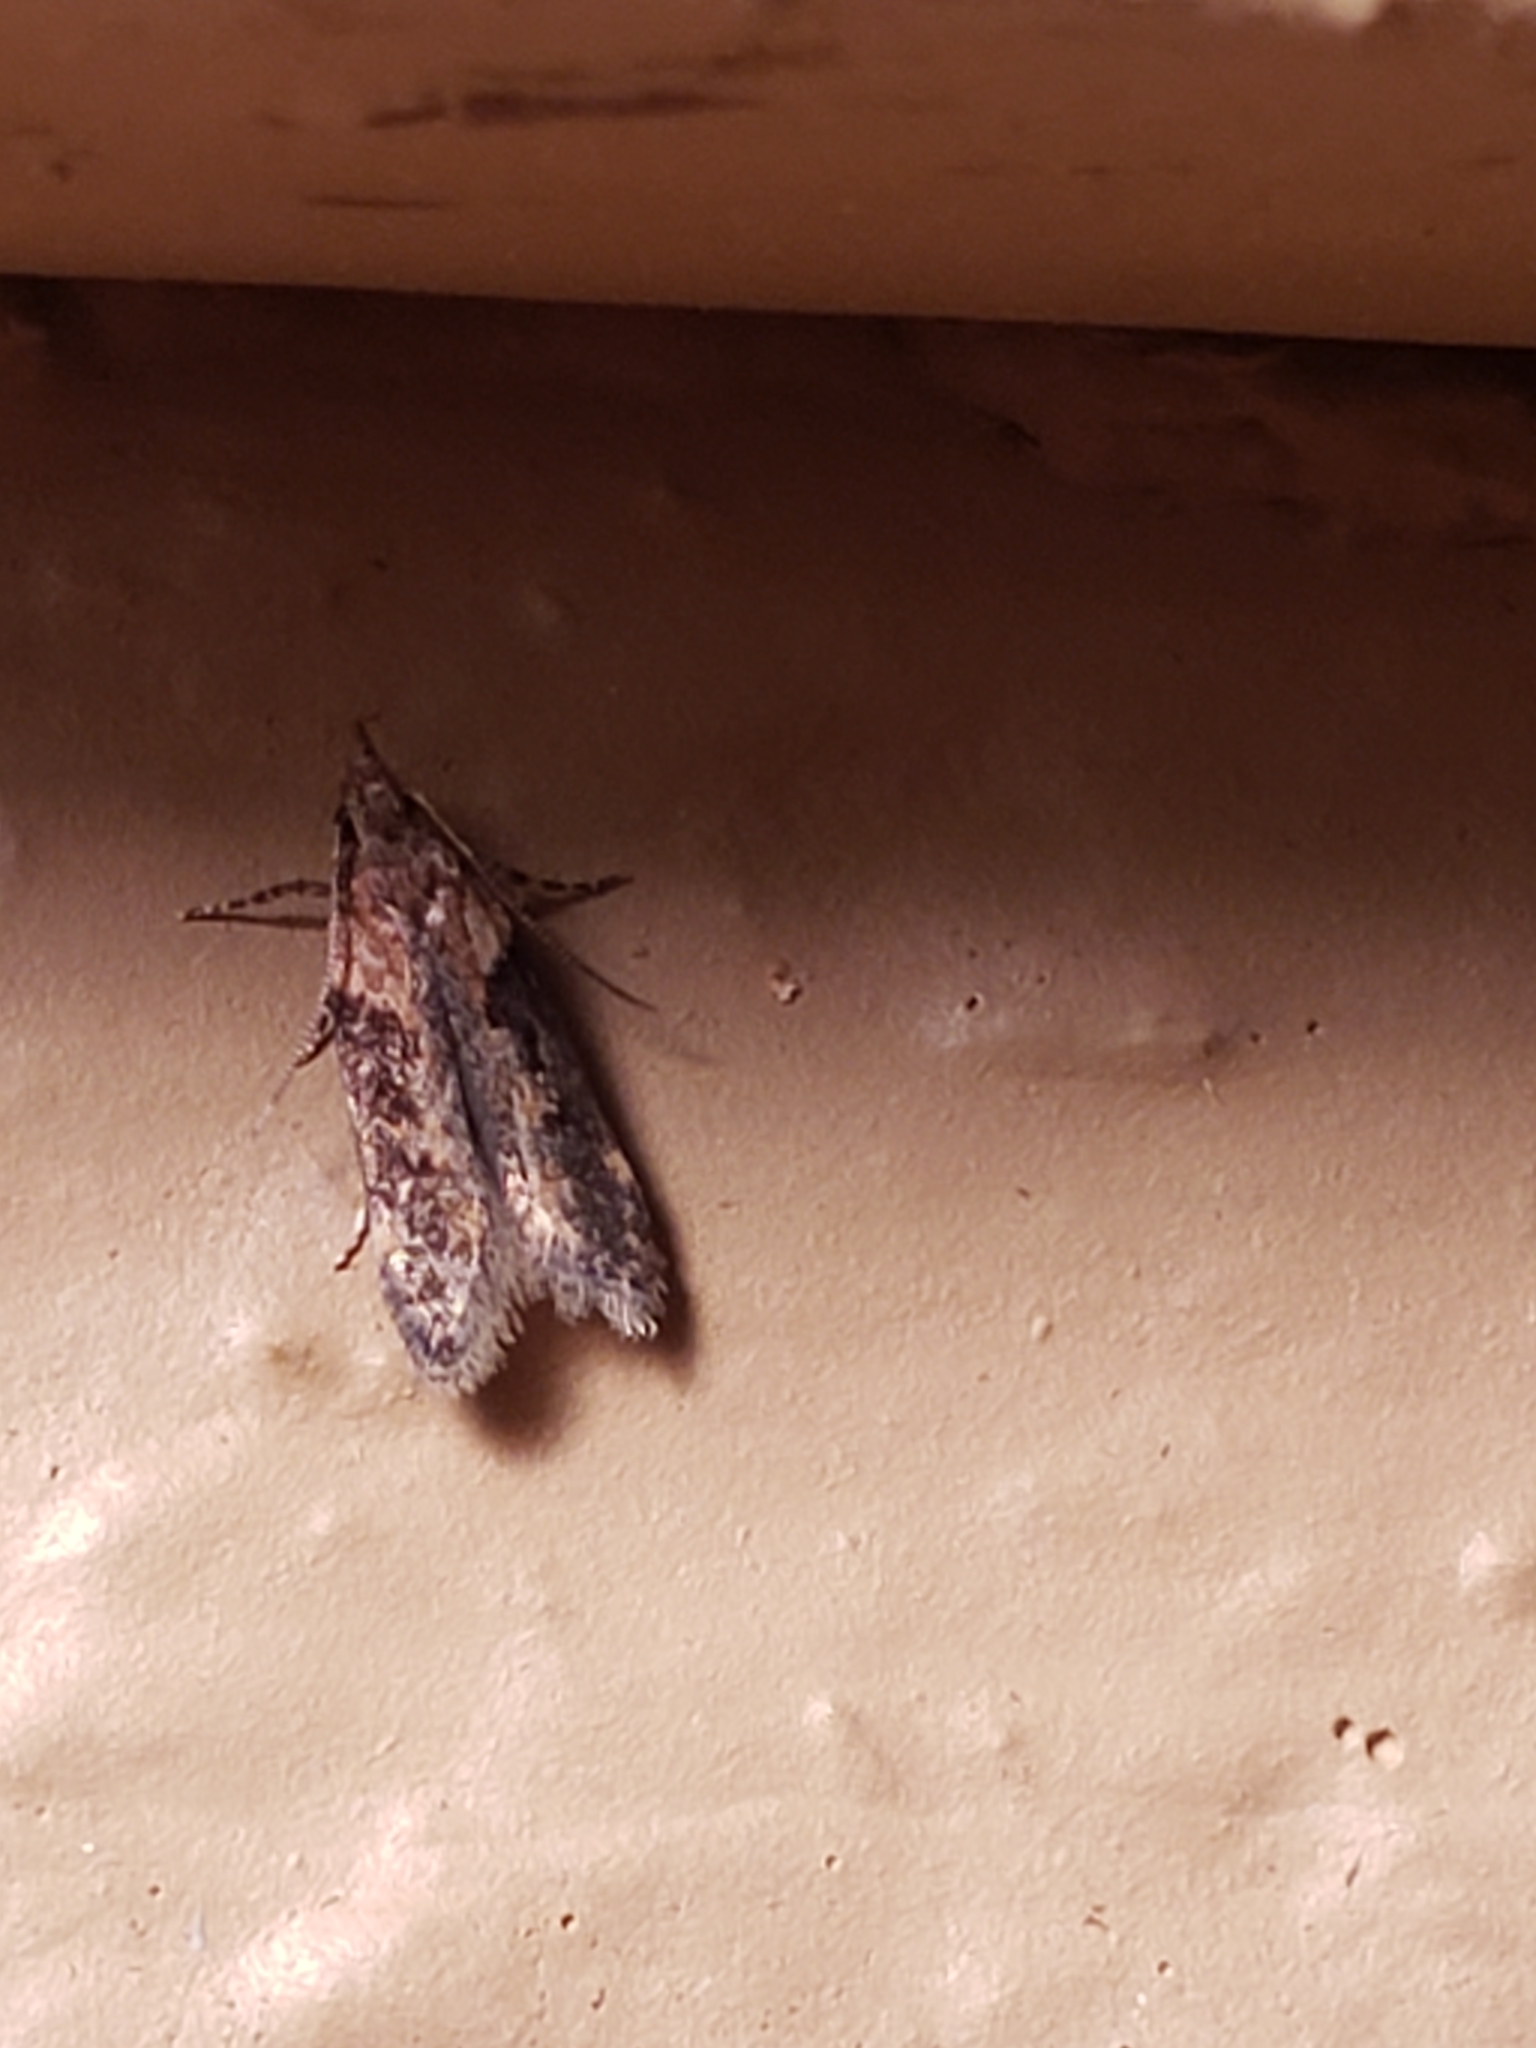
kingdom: Animalia
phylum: Arthropoda
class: Insecta
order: Lepidoptera
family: Gelechiidae
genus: Chionodes
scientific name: Chionodes mediofuscella
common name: Black-smudged chionodes moth
